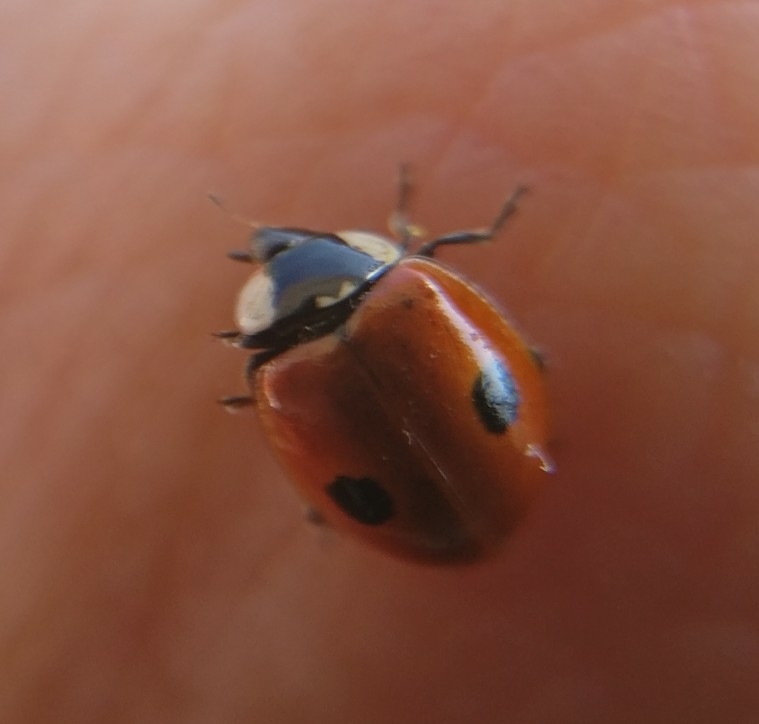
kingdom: Animalia
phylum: Arthropoda
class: Insecta
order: Coleoptera
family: Coccinellidae
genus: Adalia
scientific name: Adalia bipunctata
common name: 2-spot ladybird
